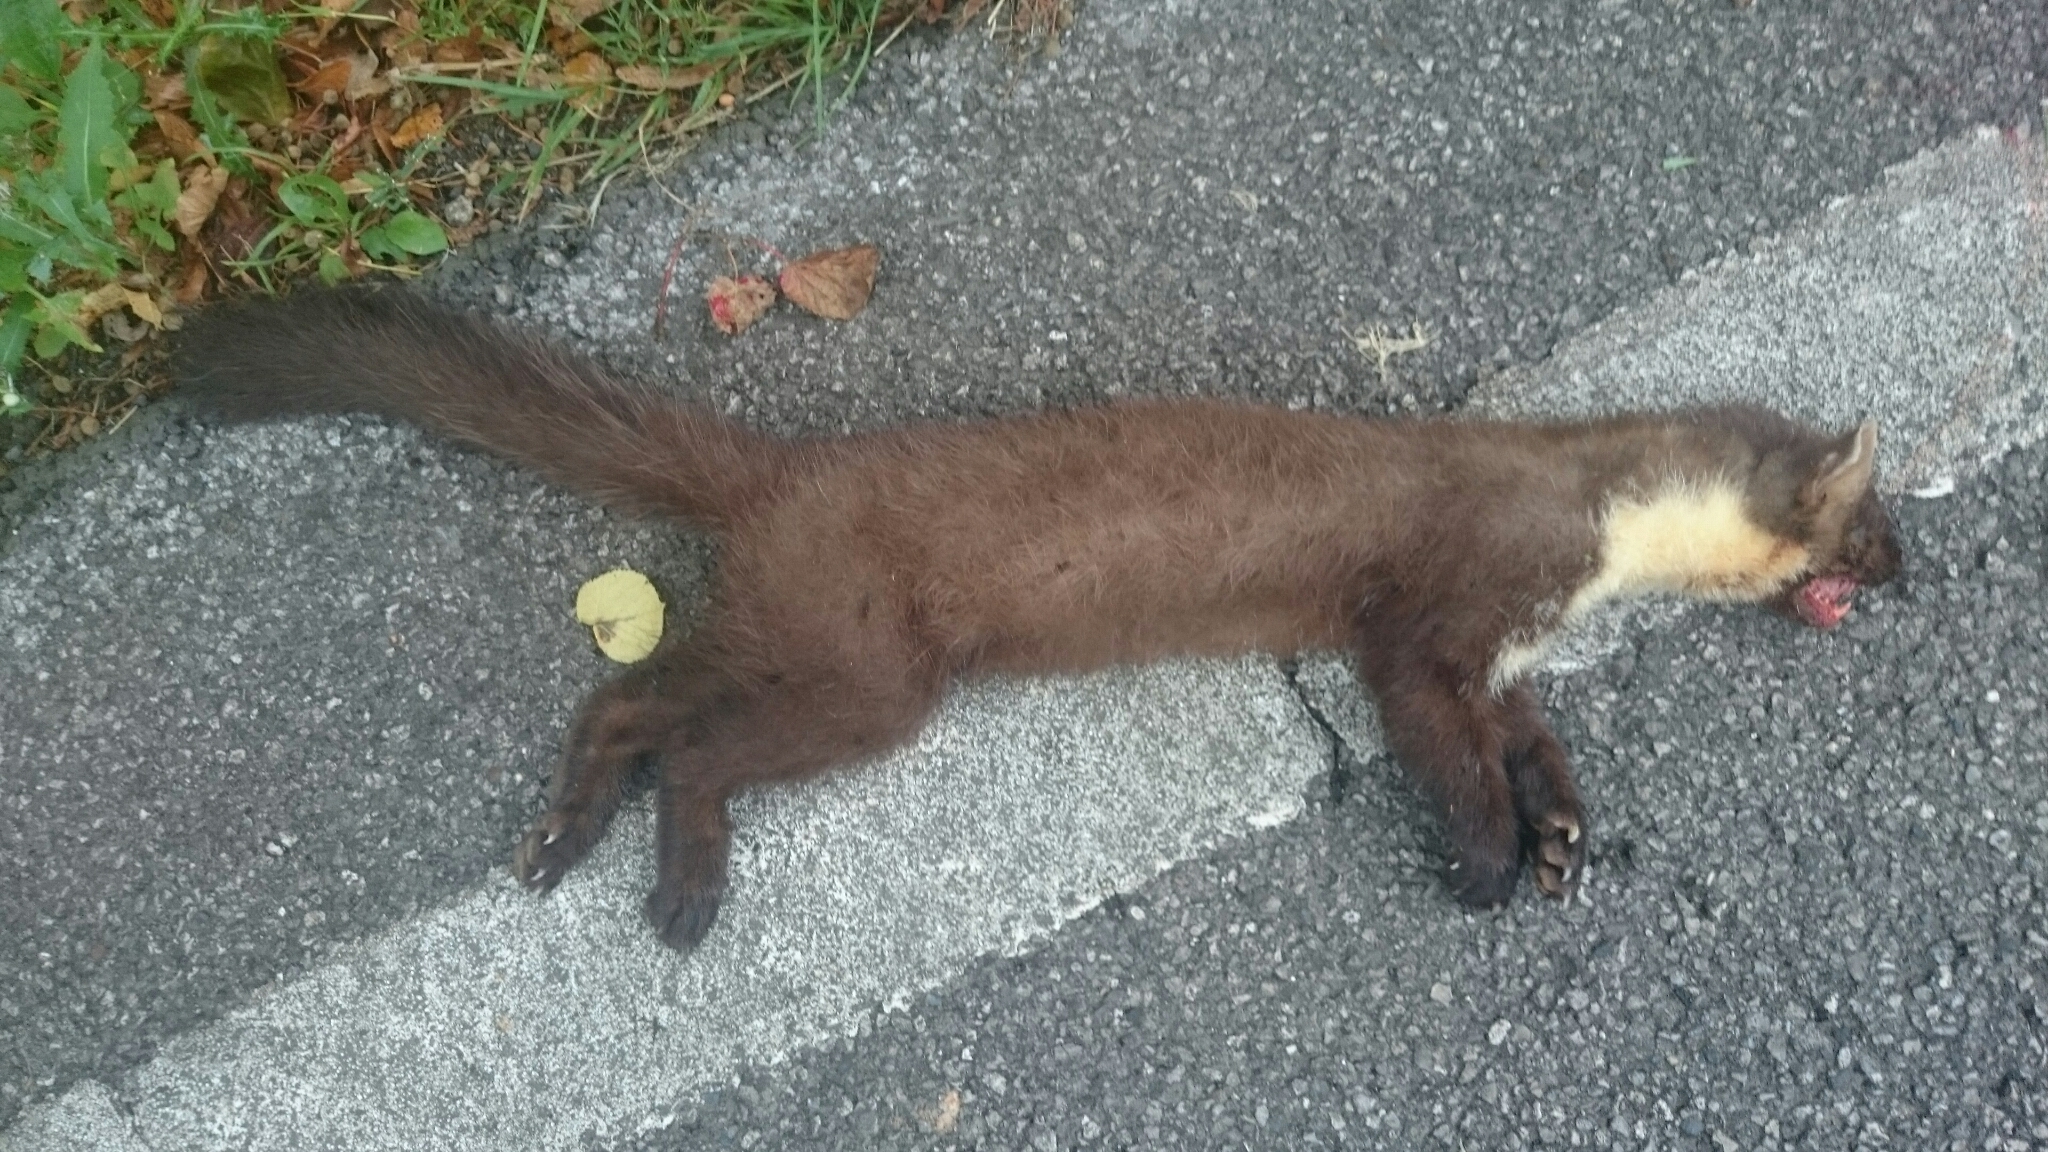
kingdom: Animalia
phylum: Chordata
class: Mammalia
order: Carnivora
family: Mustelidae
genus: Martes
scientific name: Martes foina
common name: Beech marten
